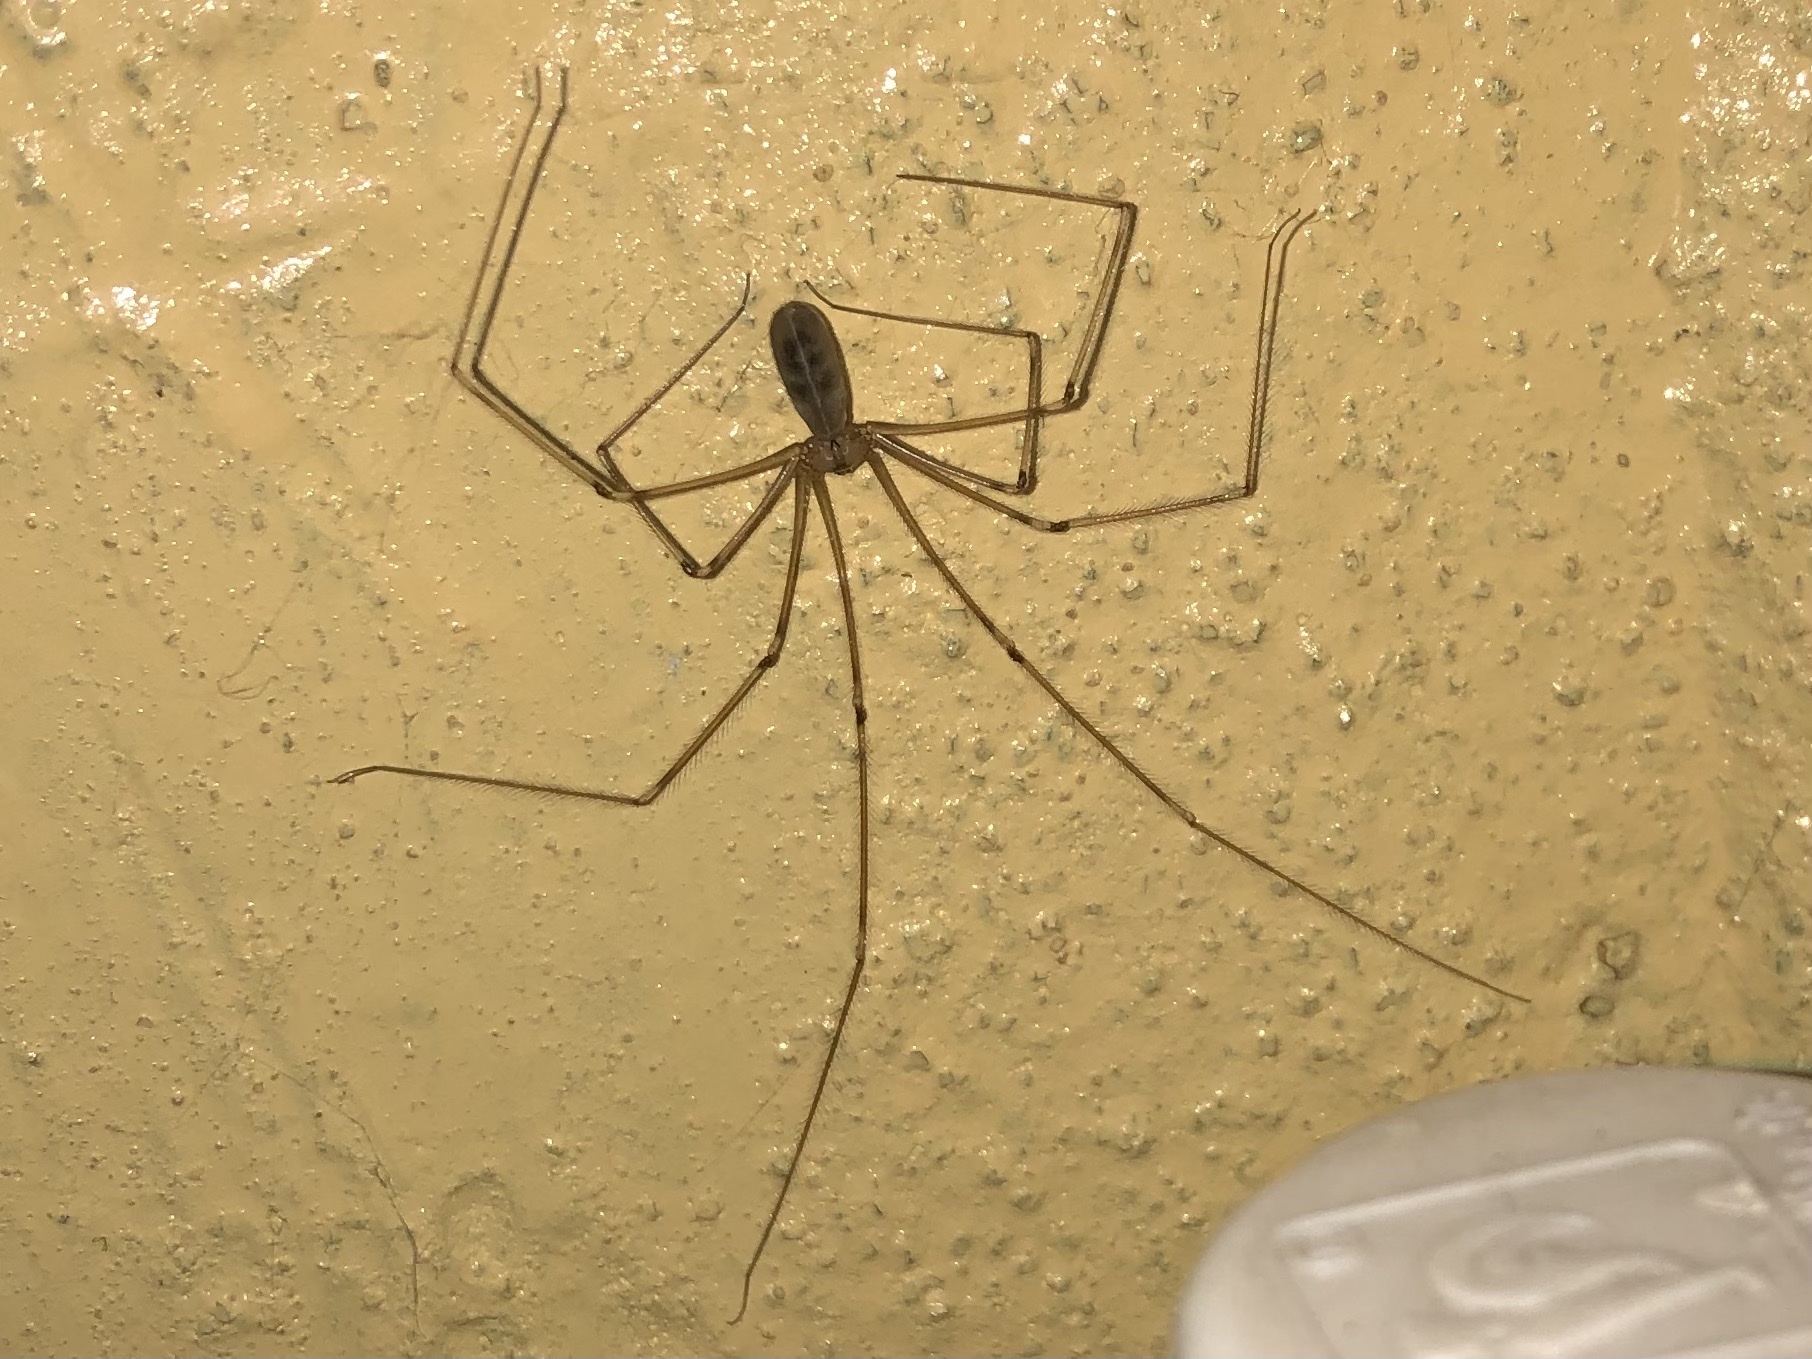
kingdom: Animalia
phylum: Arthropoda
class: Arachnida
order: Araneae
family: Pholcidae
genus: Pholcus
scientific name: Pholcus phalangioides
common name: Longbodied cellar spider
